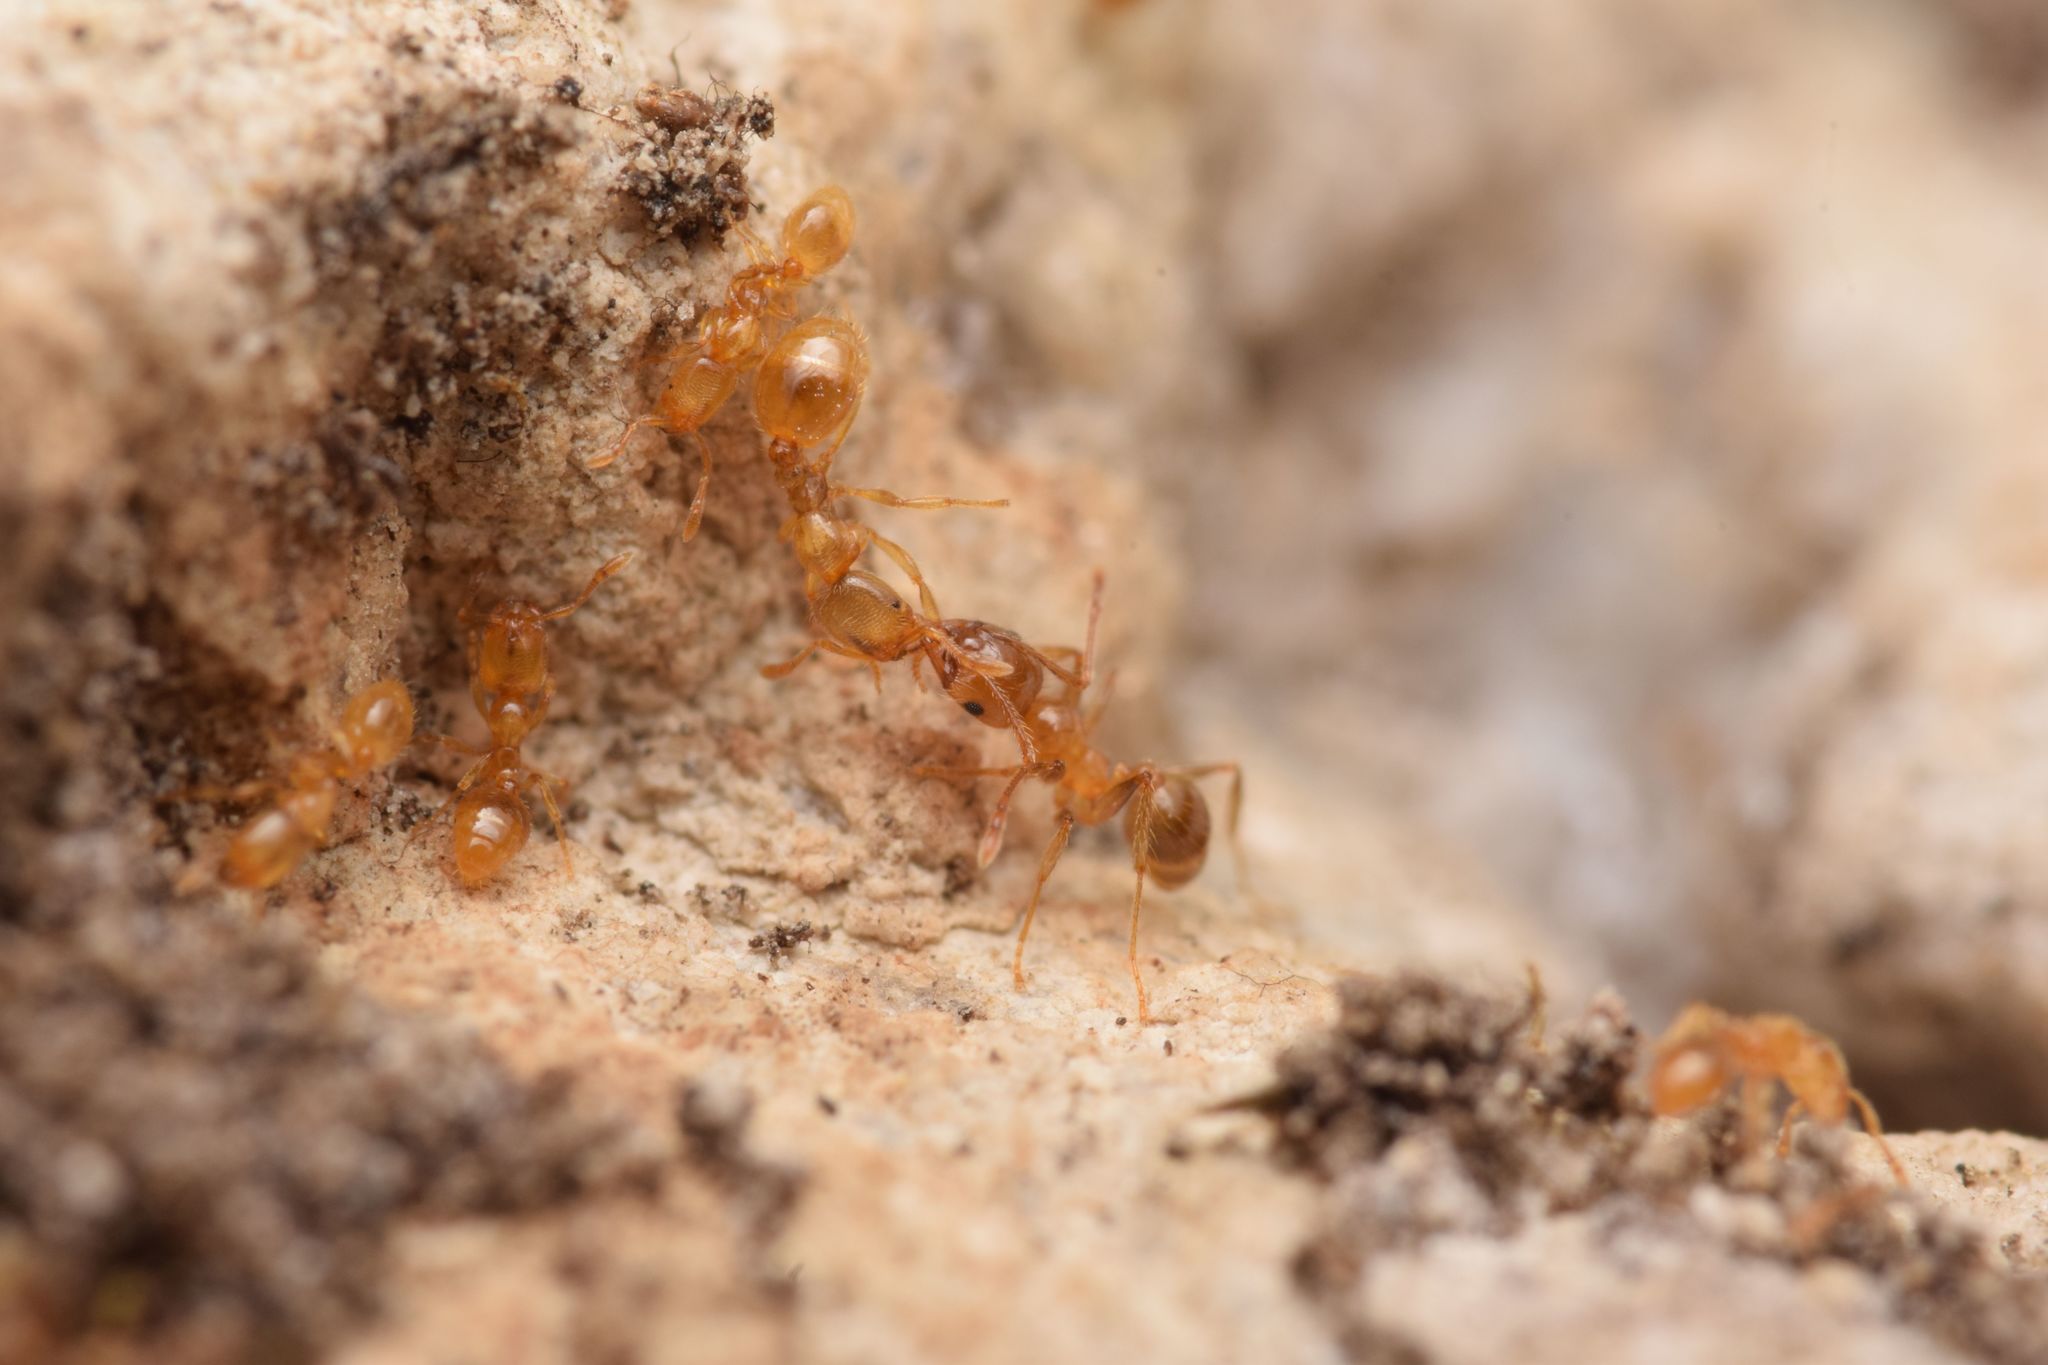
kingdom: Animalia
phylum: Arthropoda
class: Insecta
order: Hymenoptera
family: Formicidae
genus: Solenopsis
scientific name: Solenopsis fugax
